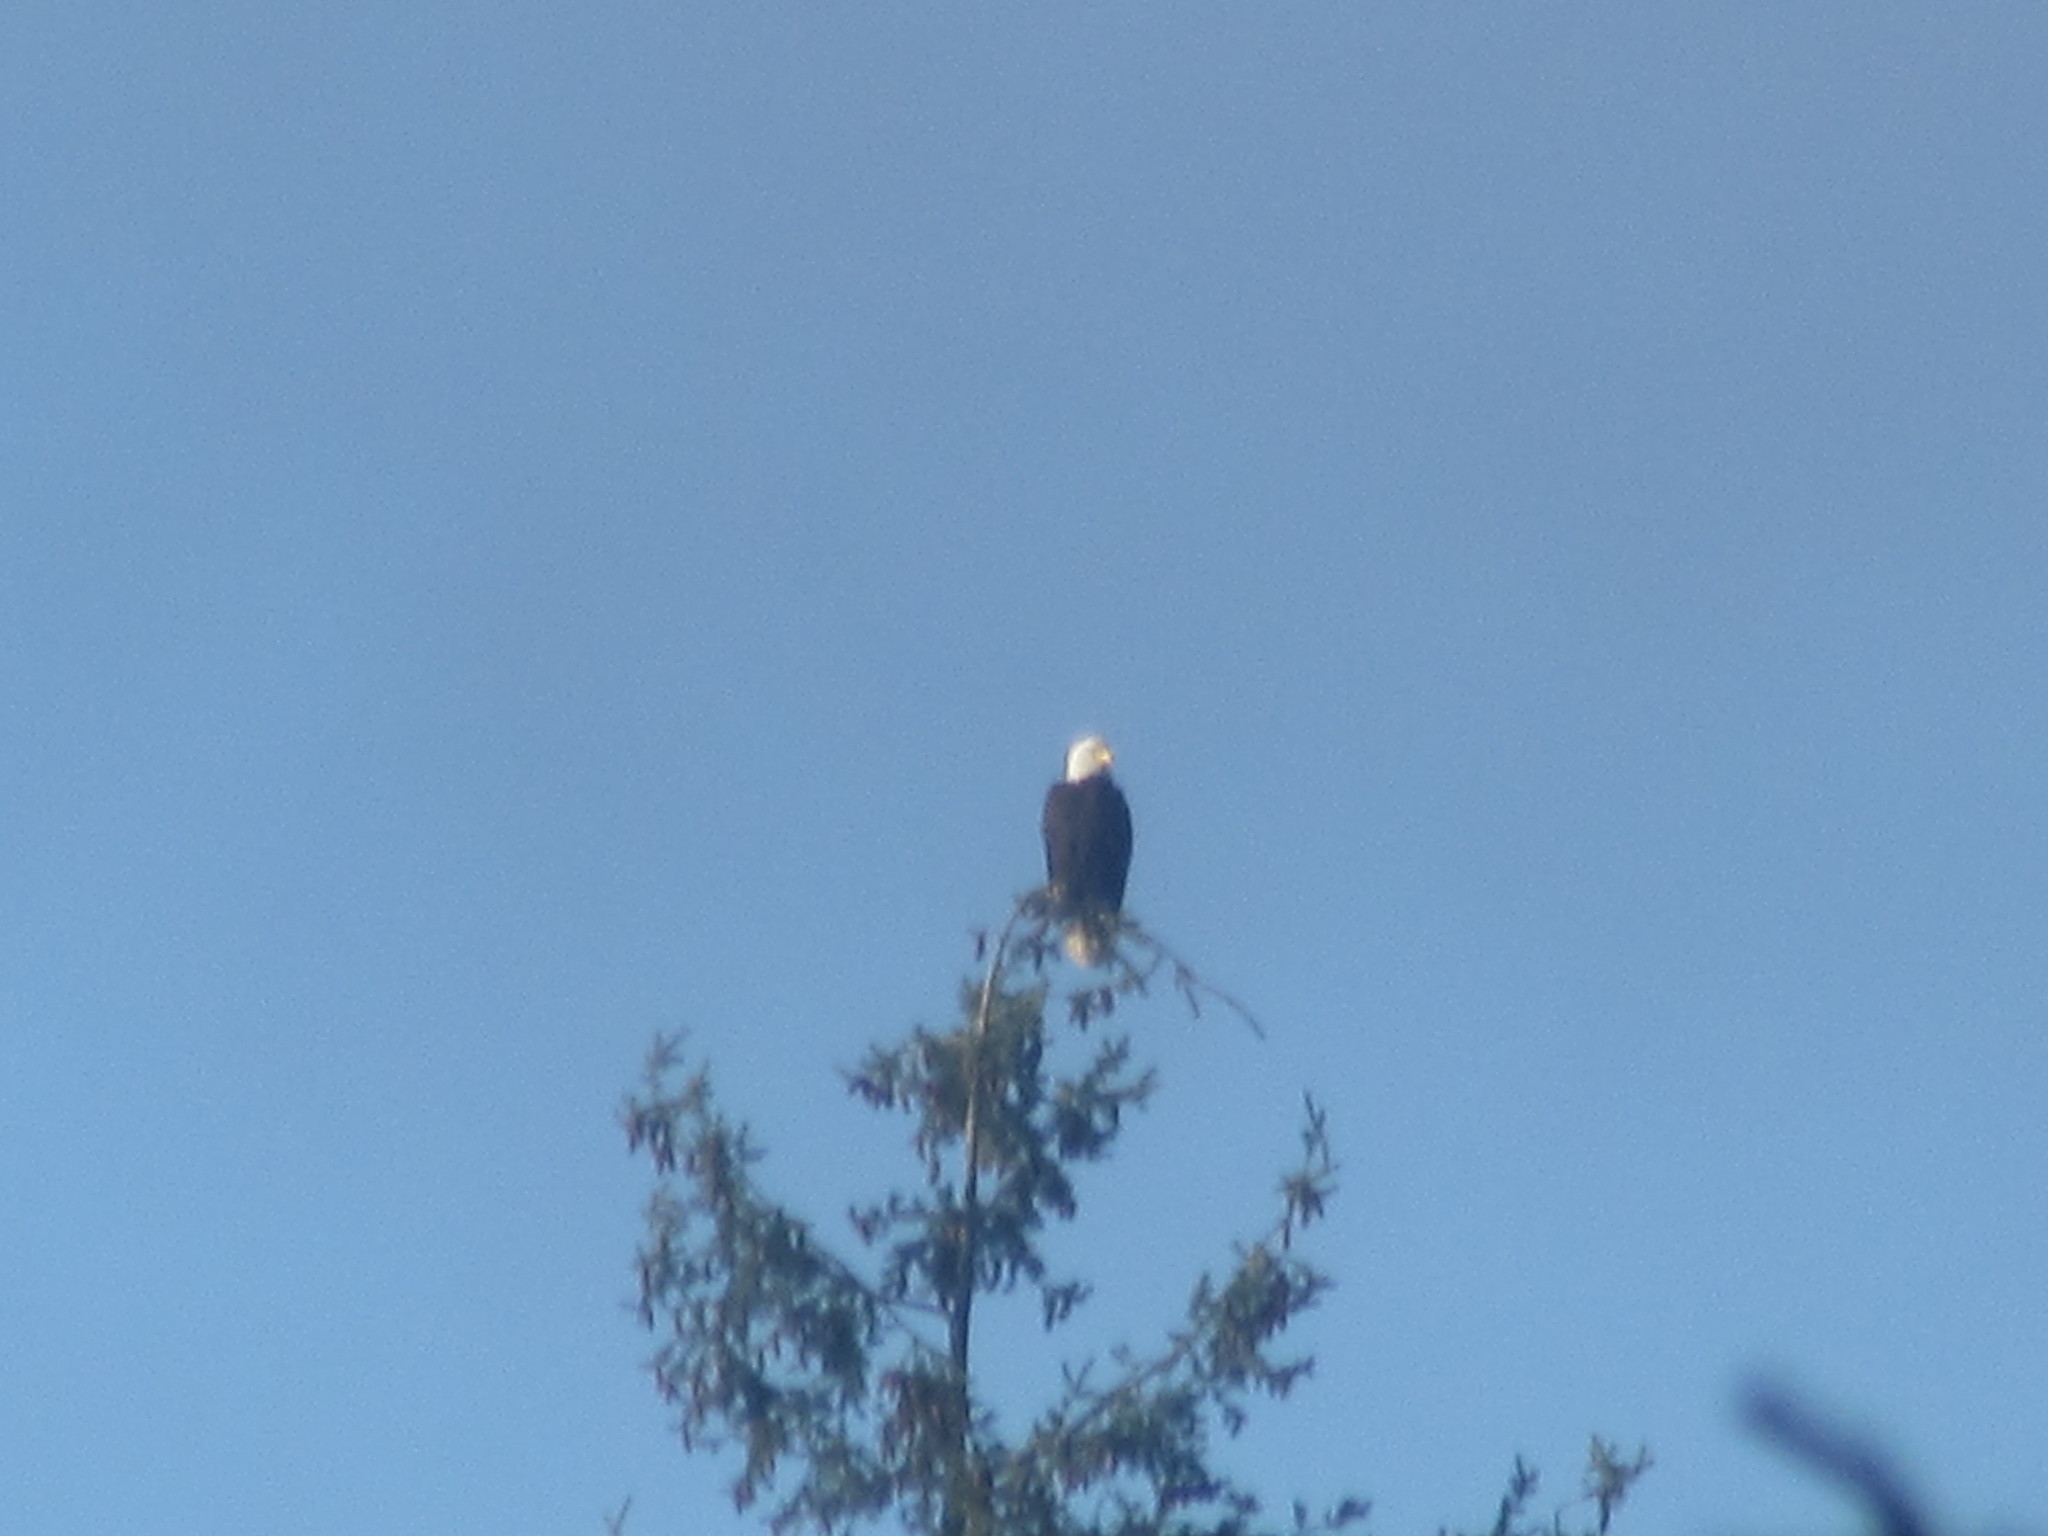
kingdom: Animalia
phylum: Chordata
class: Aves
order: Accipitriformes
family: Accipitridae
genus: Haliaeetus
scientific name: Haliaeetus leucocephalus
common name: Bald eagle
